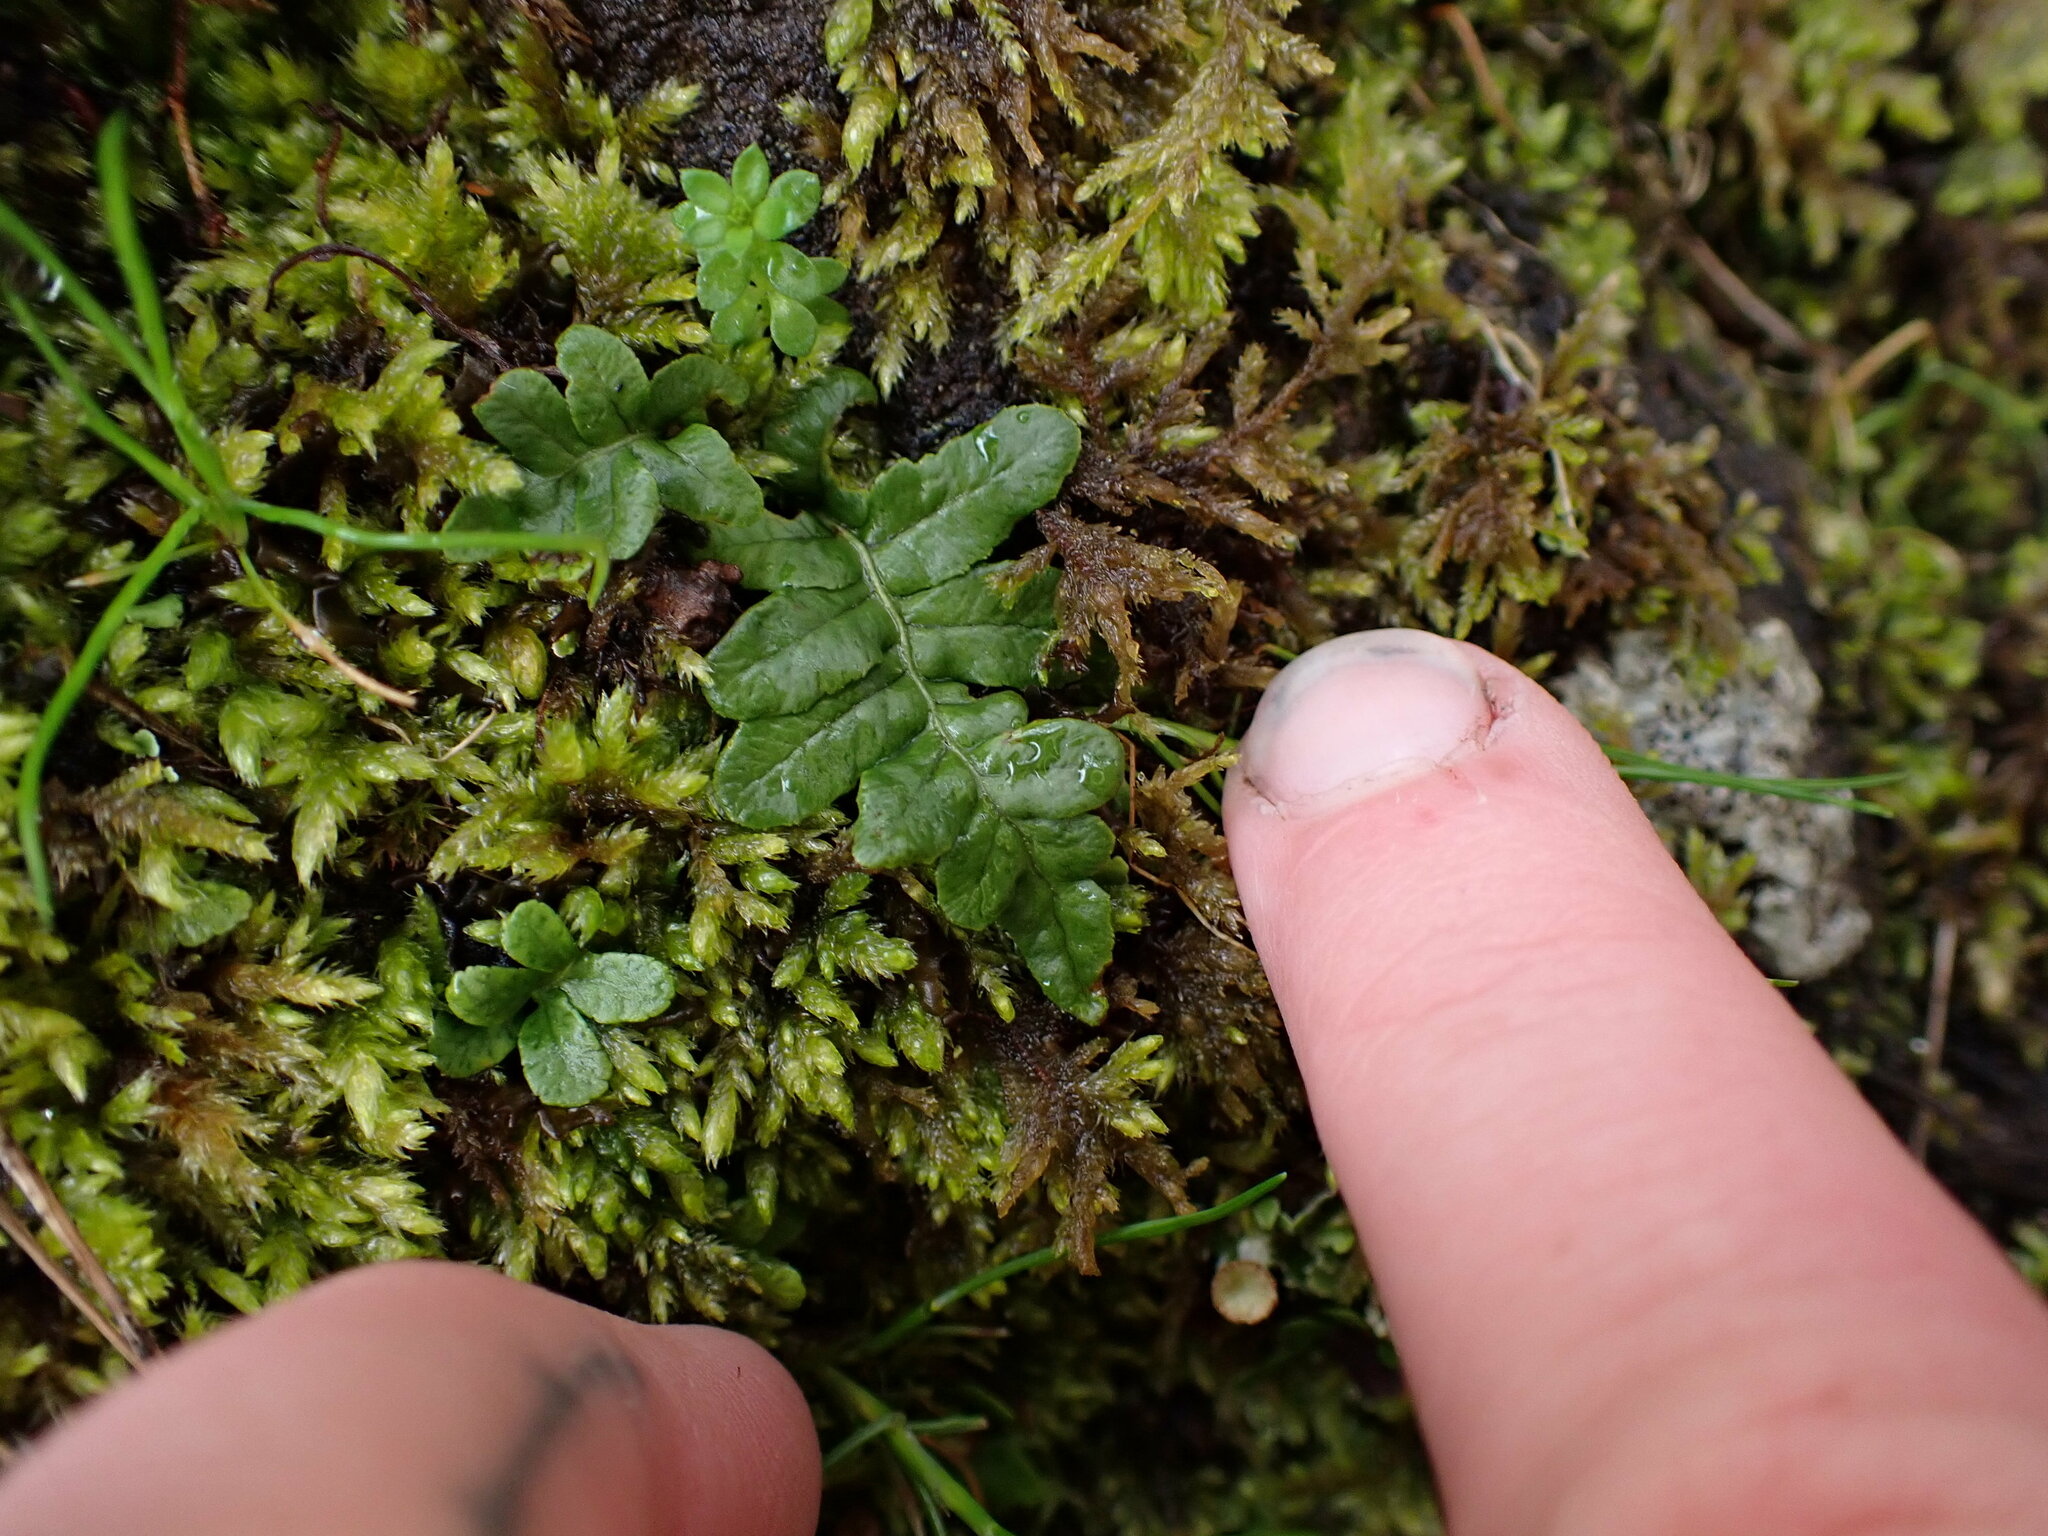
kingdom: Plantae
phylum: Tracheophyta
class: Polypodiopsida
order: Polypodiales
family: Polypodiaceae
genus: Polypodium
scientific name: Polypodium glycyrrhiza
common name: Licorice fern
